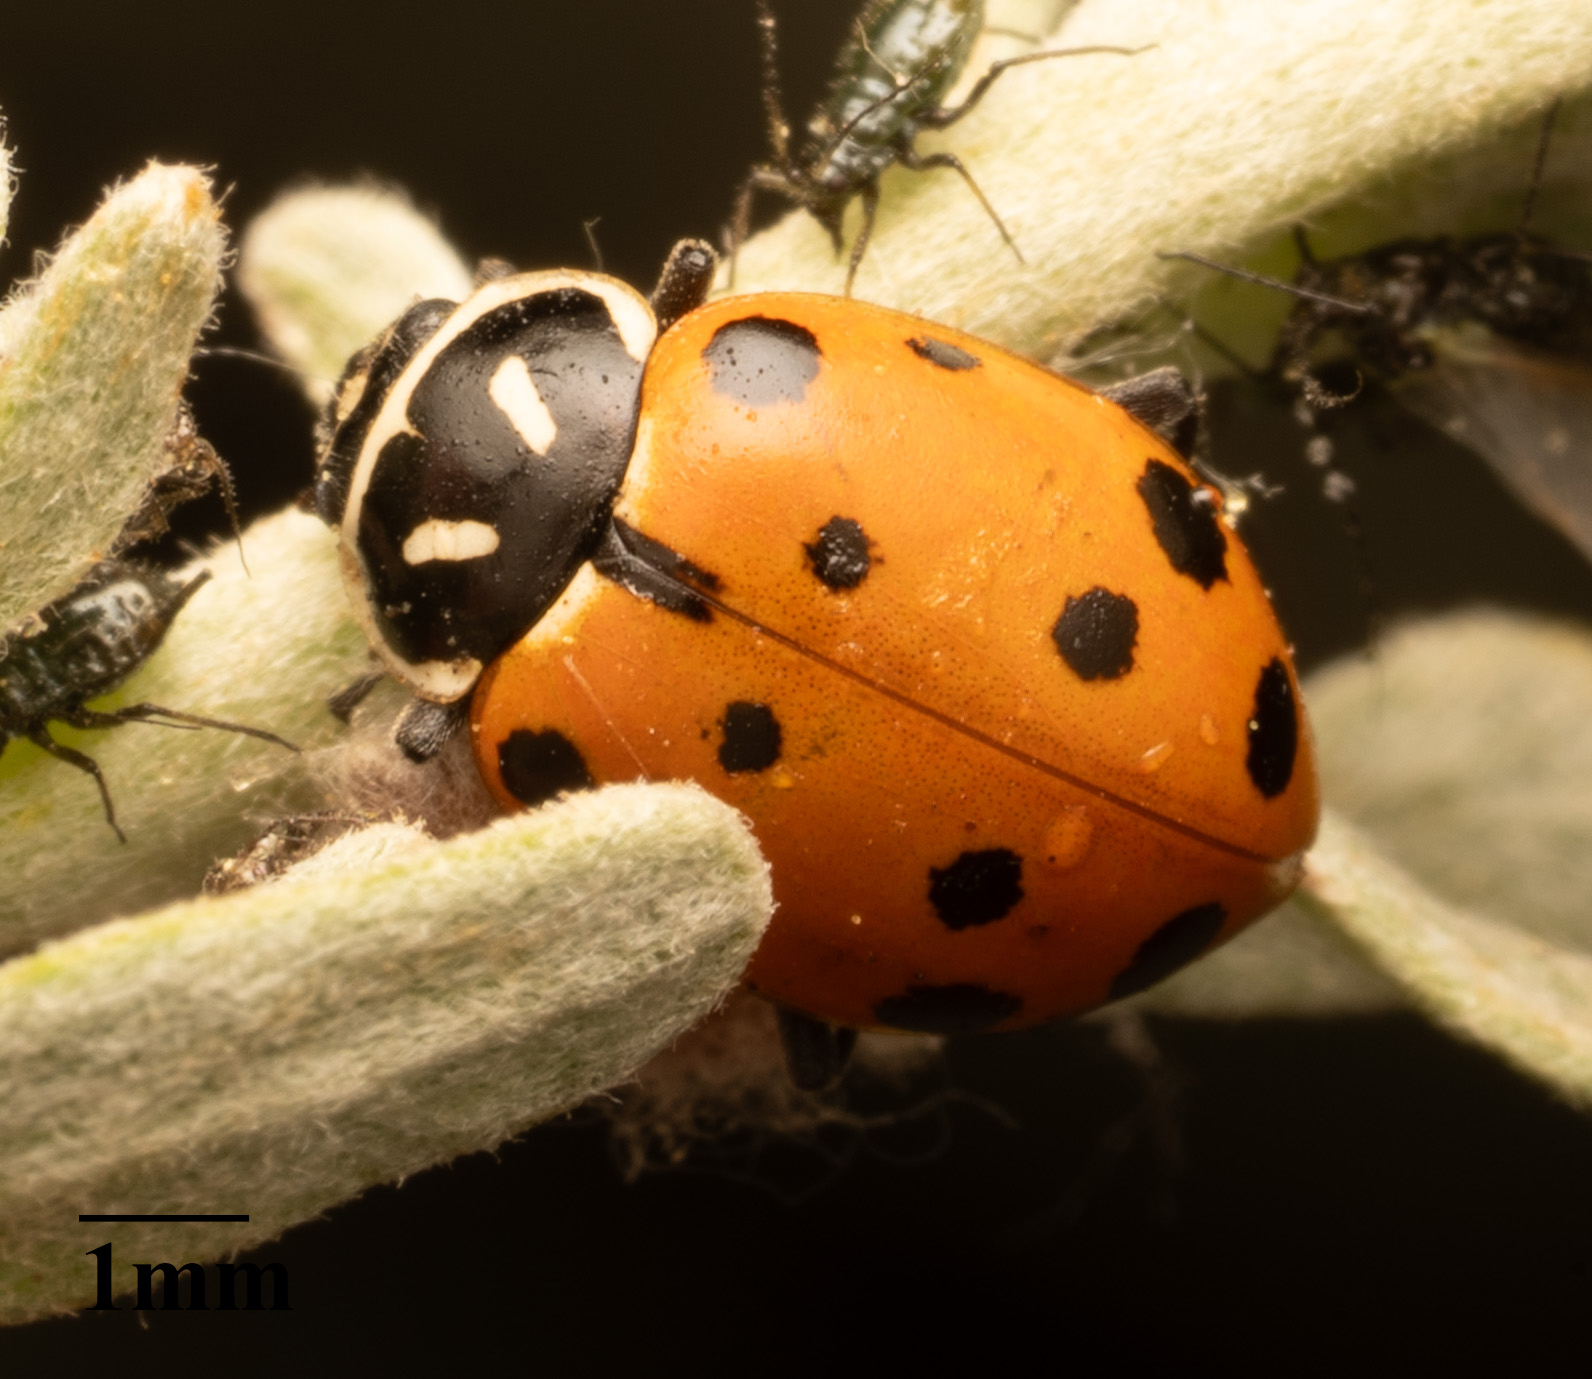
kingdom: Animalia
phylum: Arthropoda
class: Insecta
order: Coleoptera
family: Coccinellidae
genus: Hippodamia
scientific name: Hippodamia convergens
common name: Convergent lady beetle
